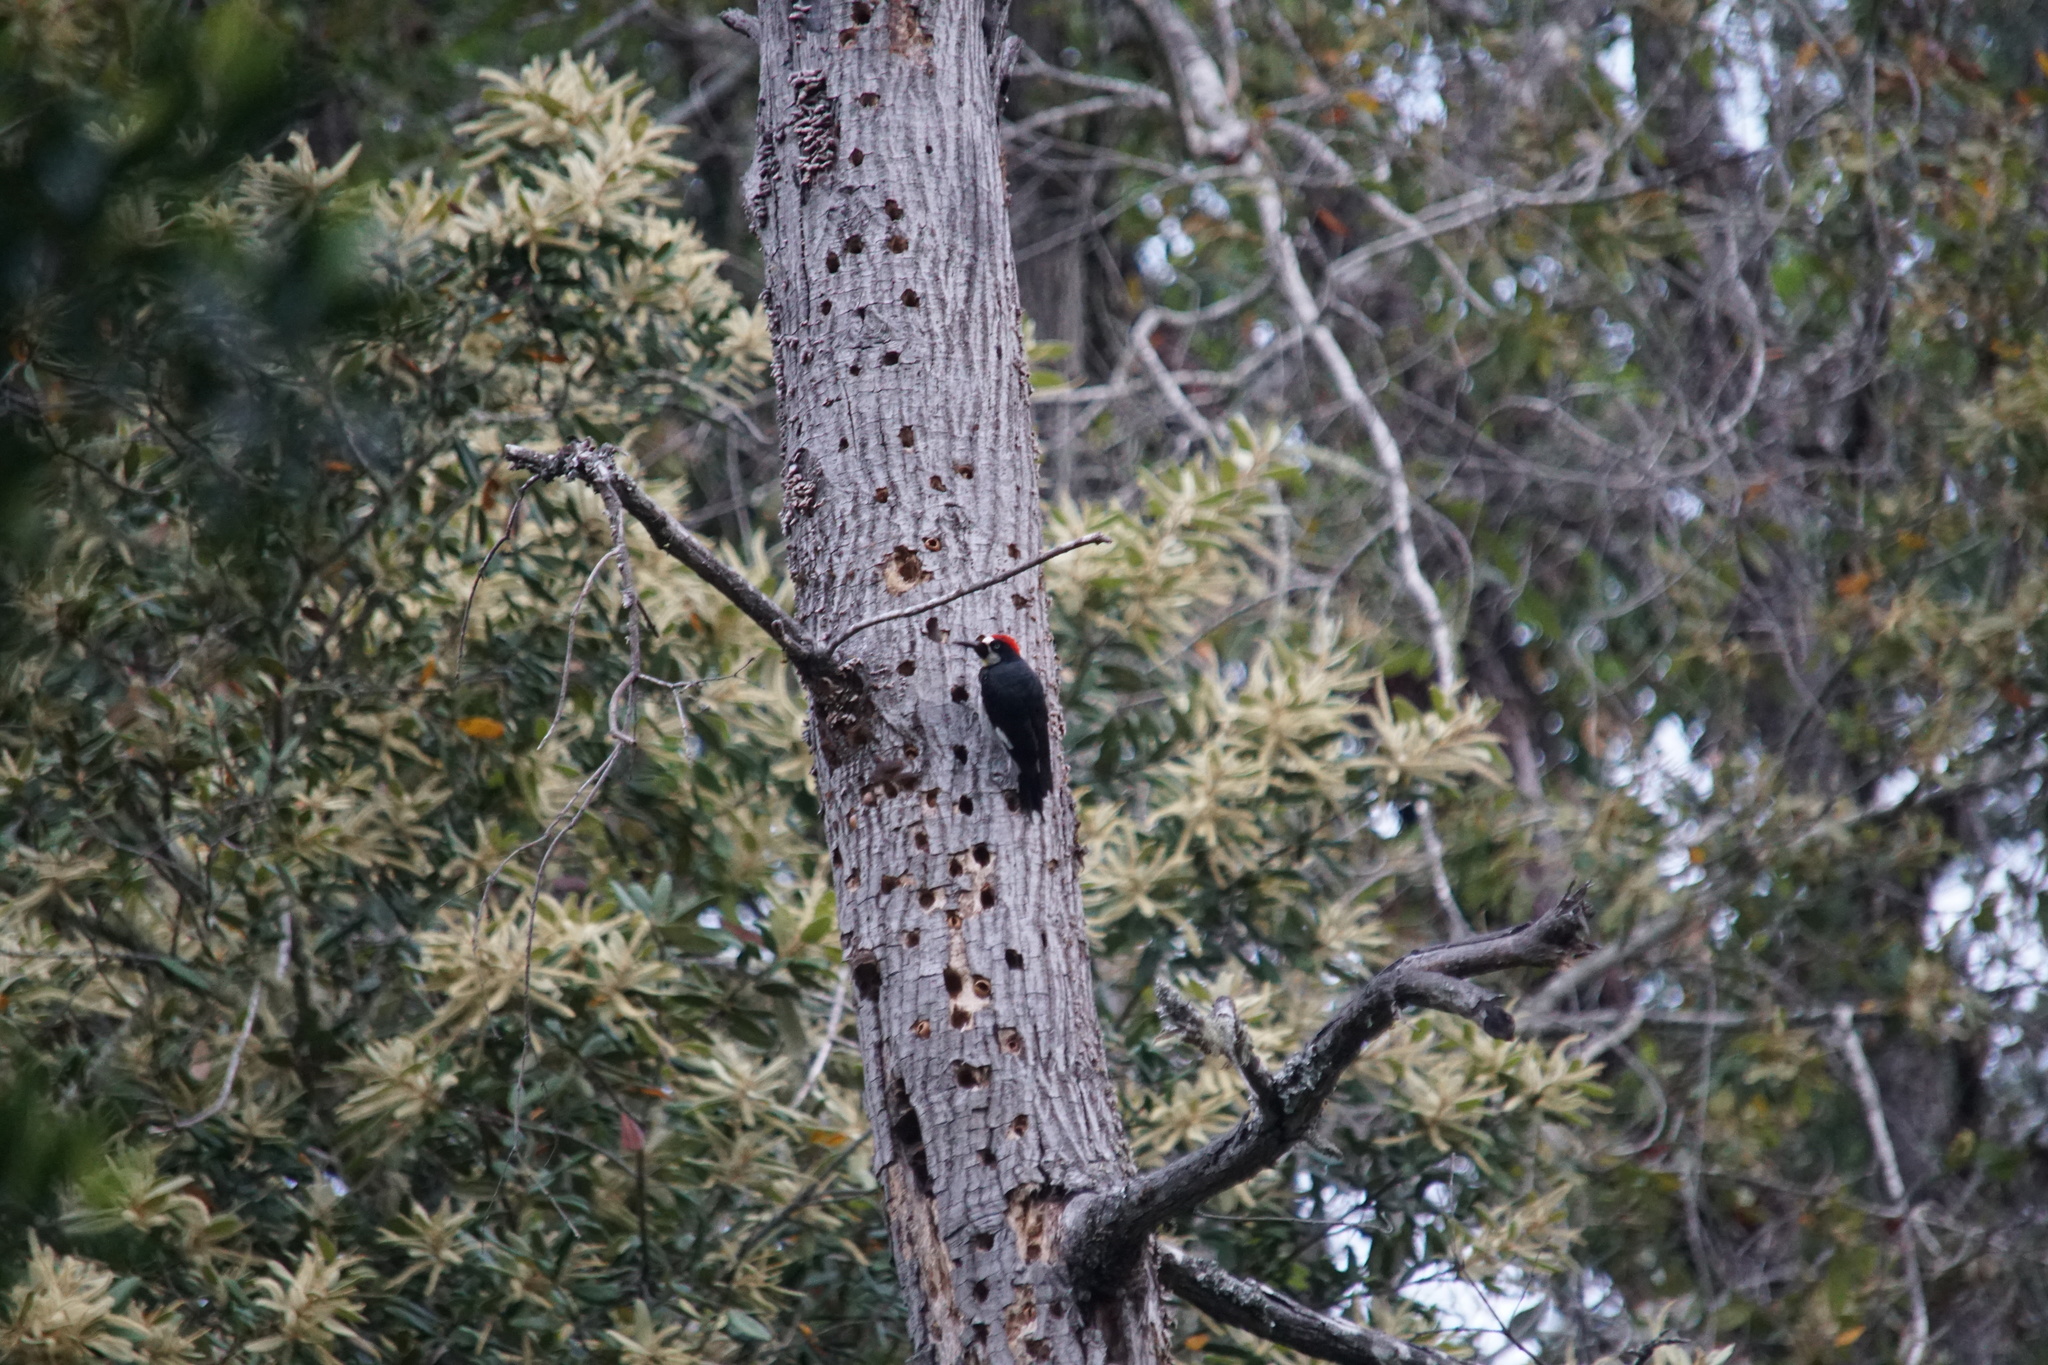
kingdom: Animalia
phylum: Chordata
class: Aves
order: Piciformes
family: Picidae
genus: Melanerpes
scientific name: Melanerpes formicivorus
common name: Acorn woodpecker
